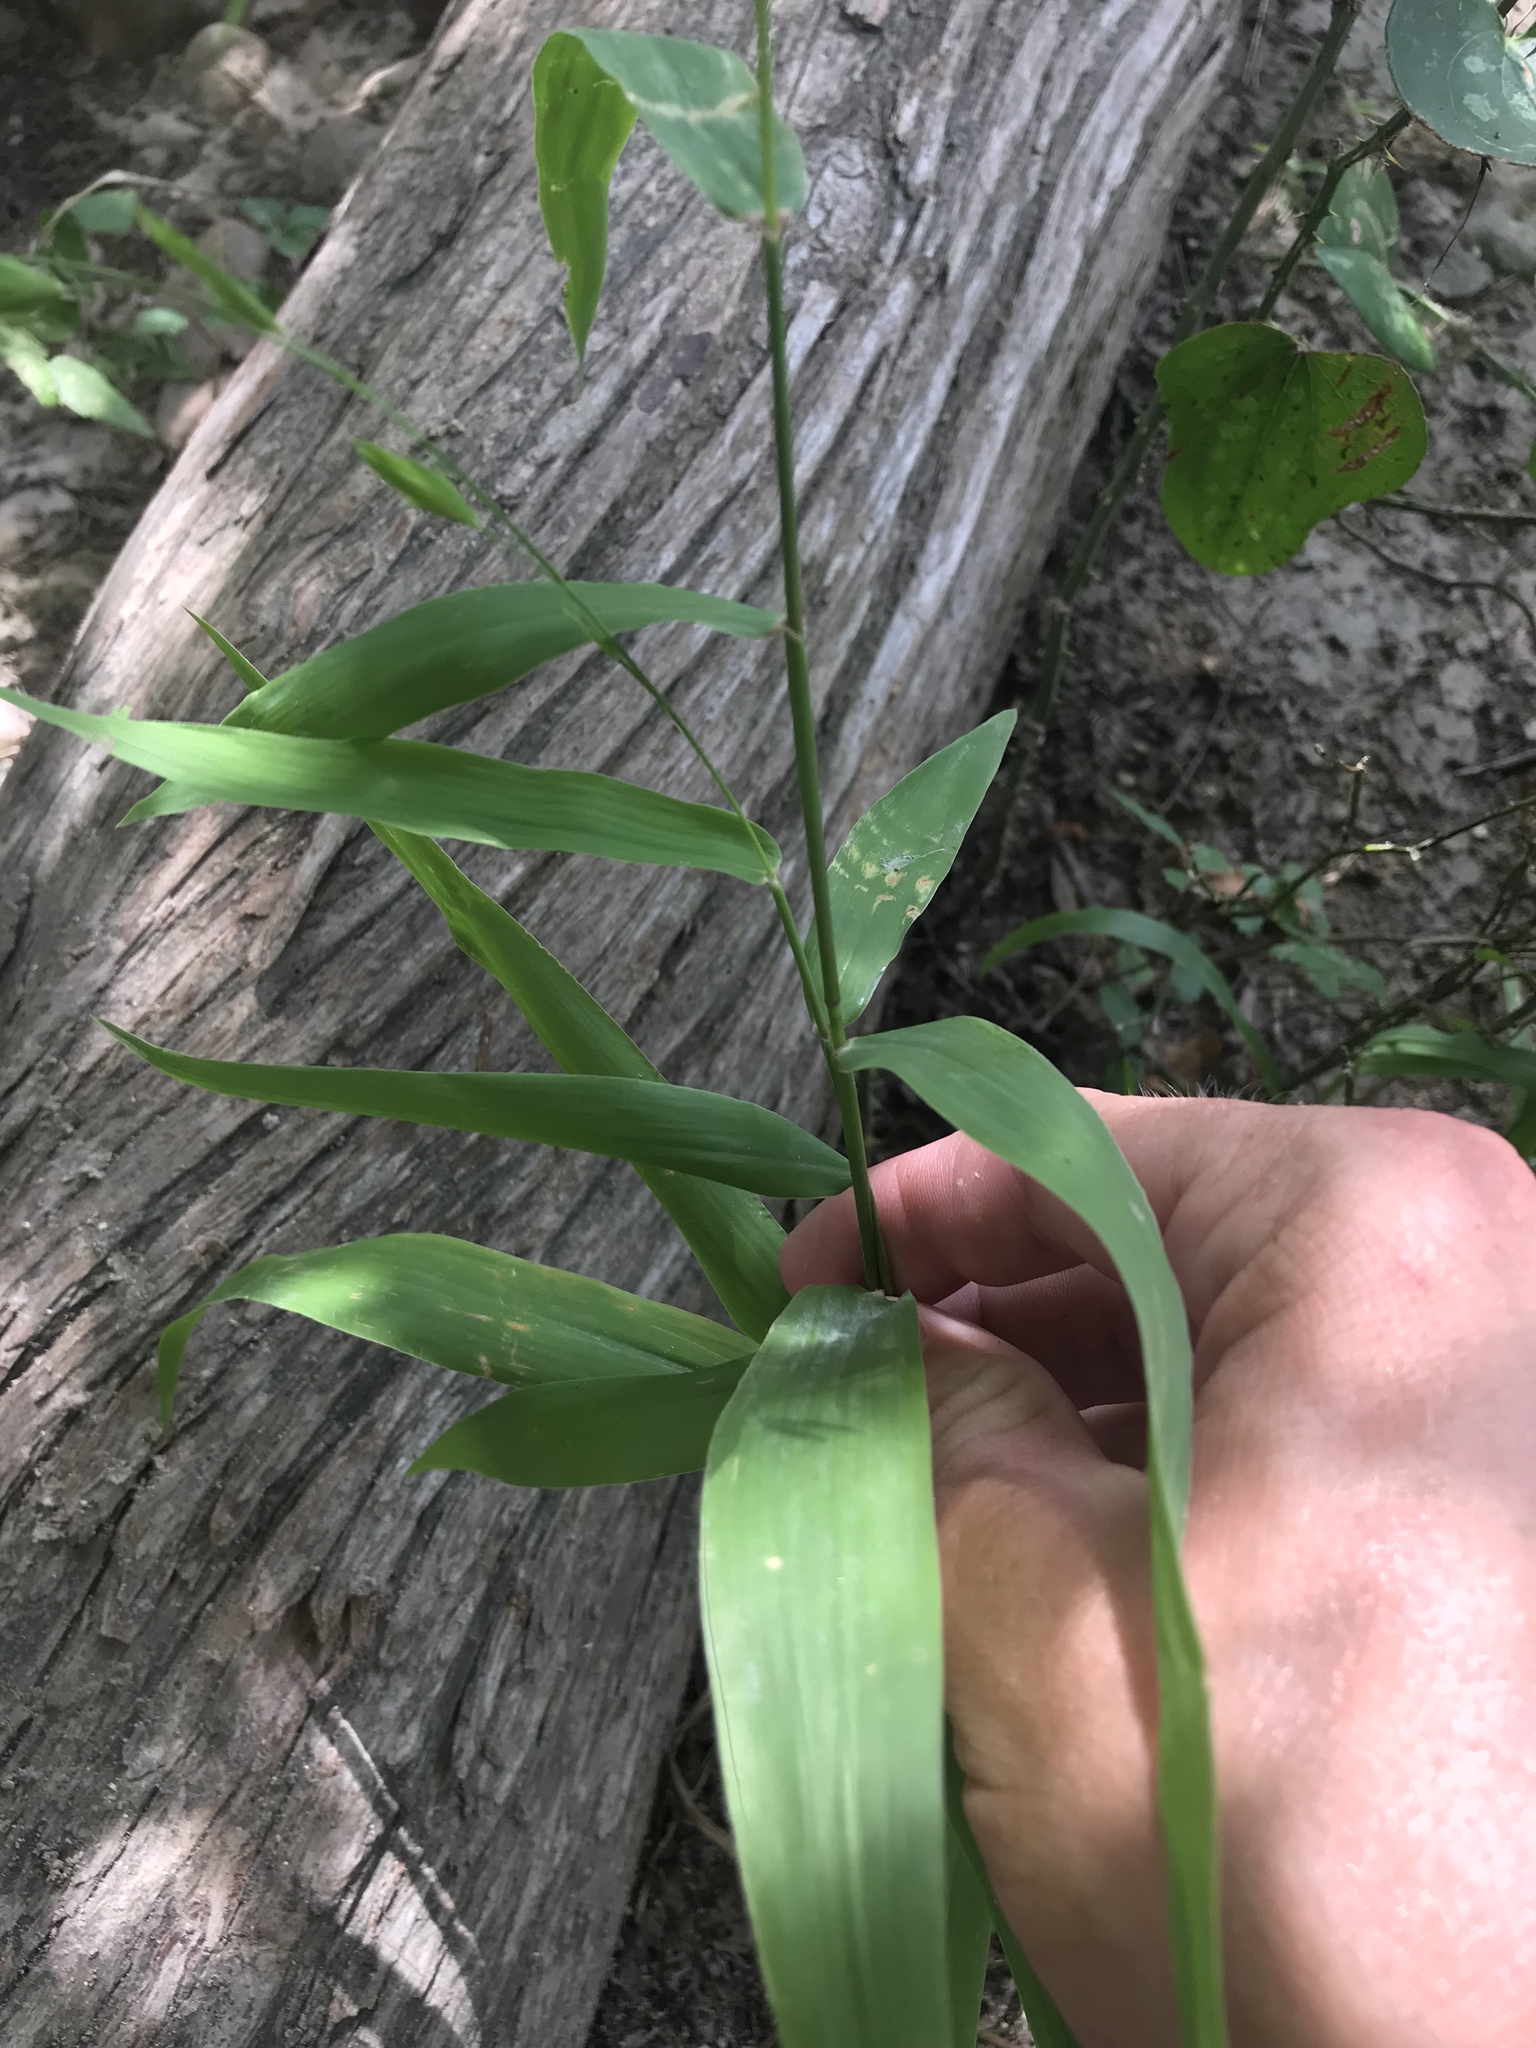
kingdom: Plantae
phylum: Tracheophyta
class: Liliopsida
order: Poales
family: Poaceae
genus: Chasmanthium
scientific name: Chasmanthium latifolium
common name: Broad-leaved chasmanthium
